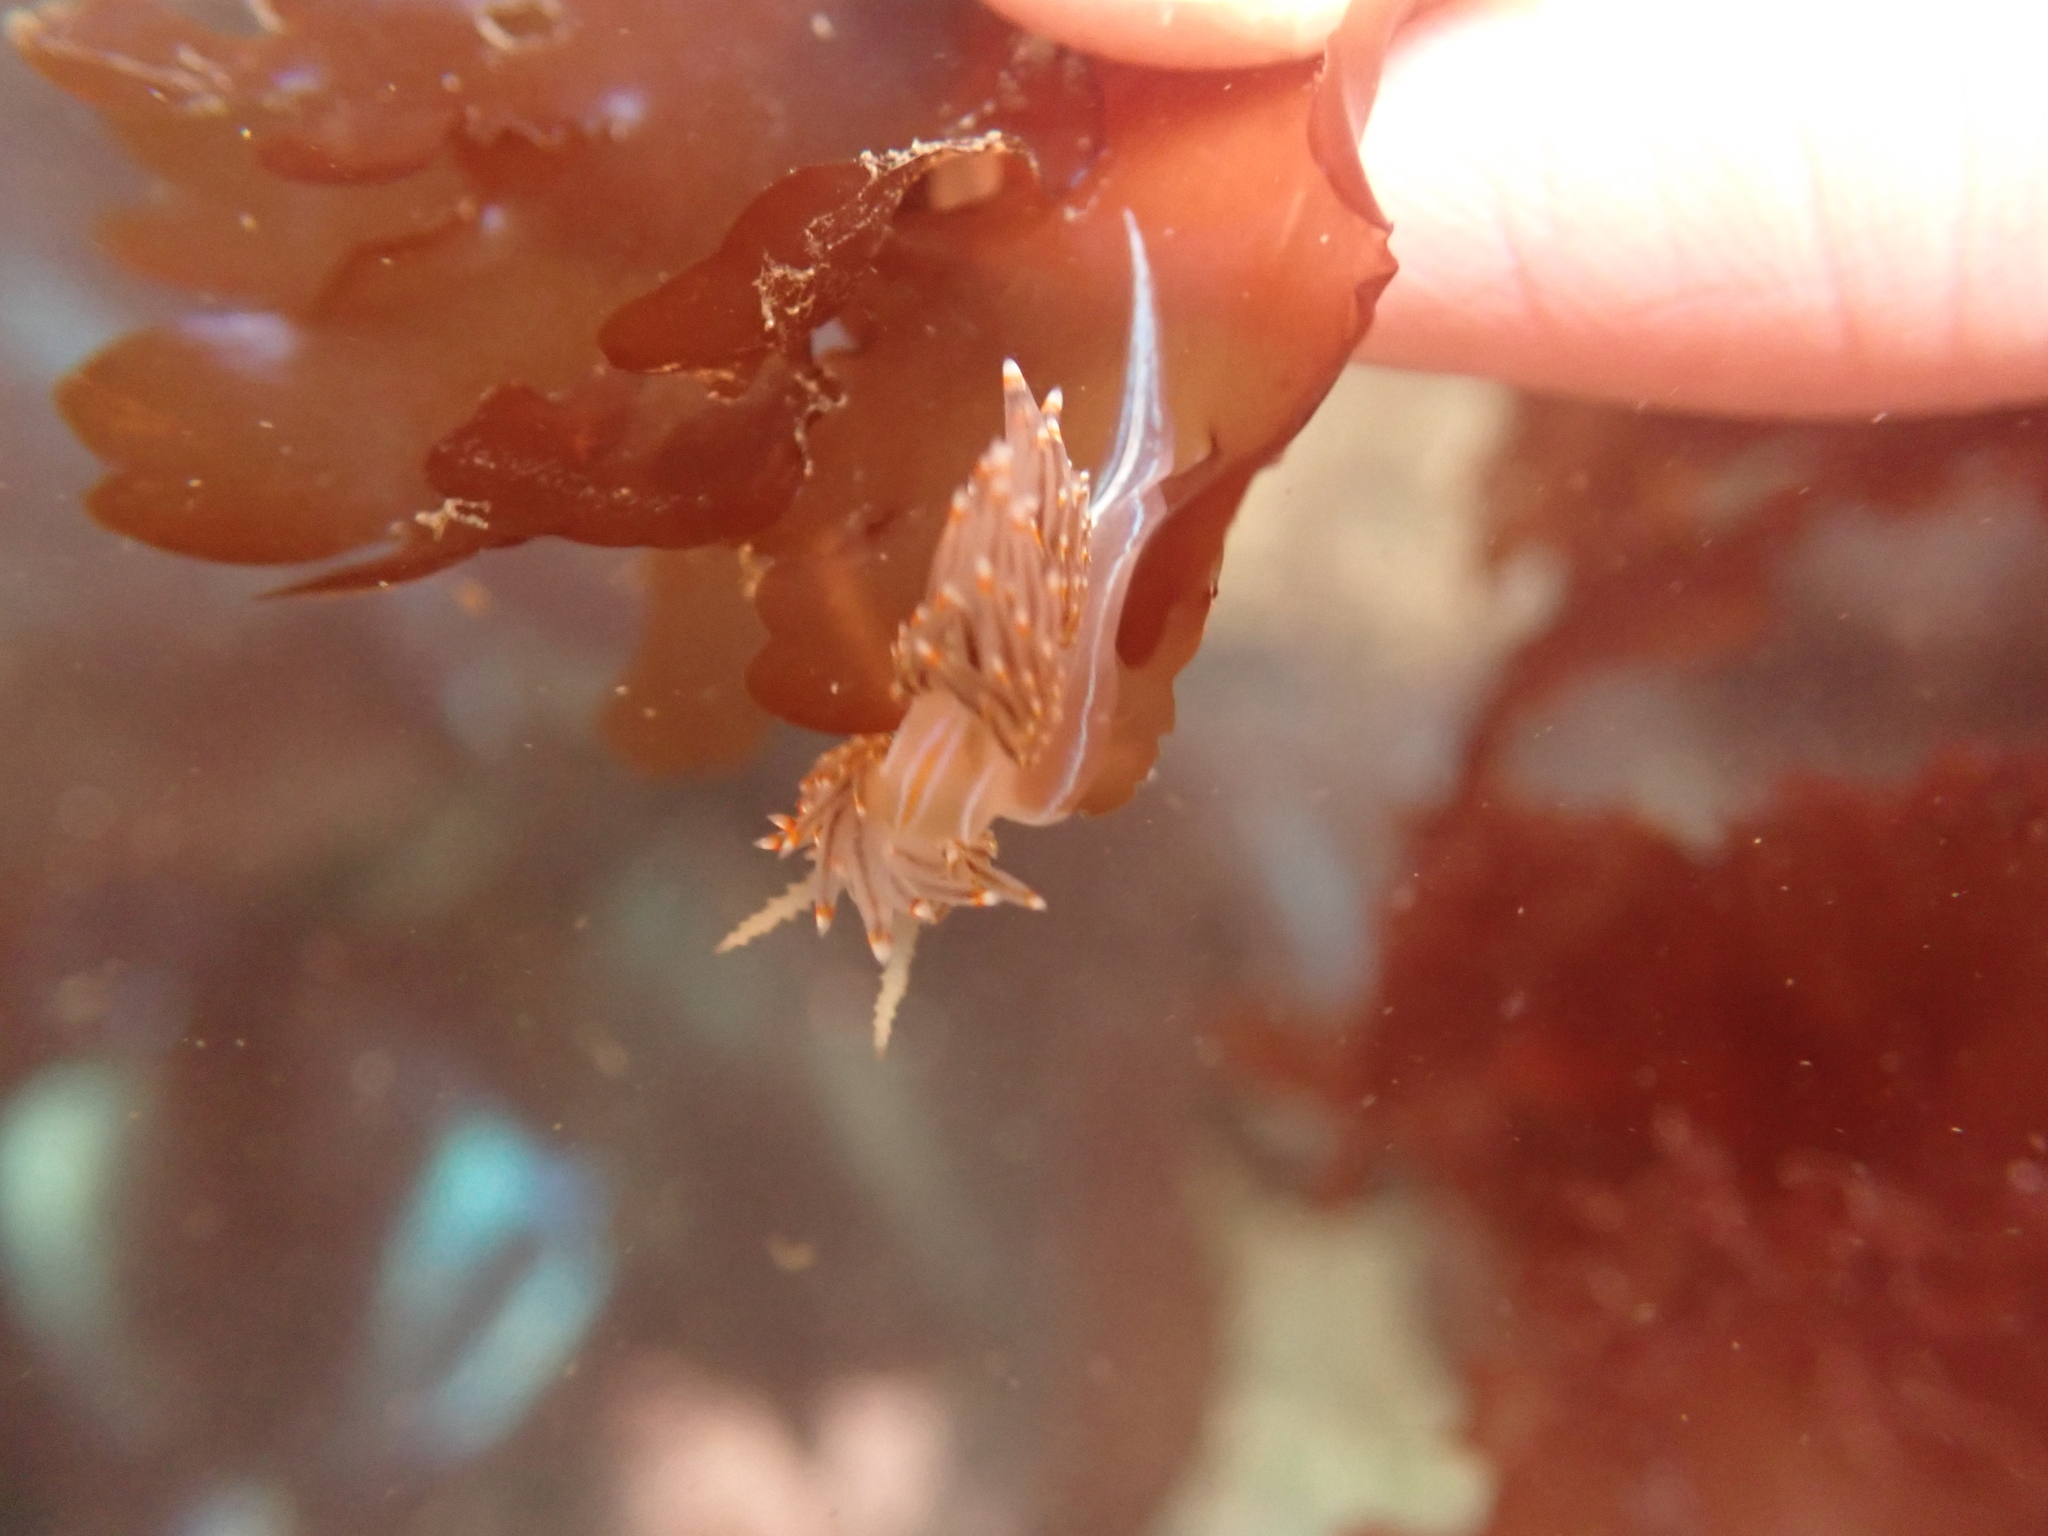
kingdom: Animalia
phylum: Mollusca
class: Gastropoda
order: Nudibranchia
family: Myrrhinidae
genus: Hermissenda
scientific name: Hermissenda opalescens
